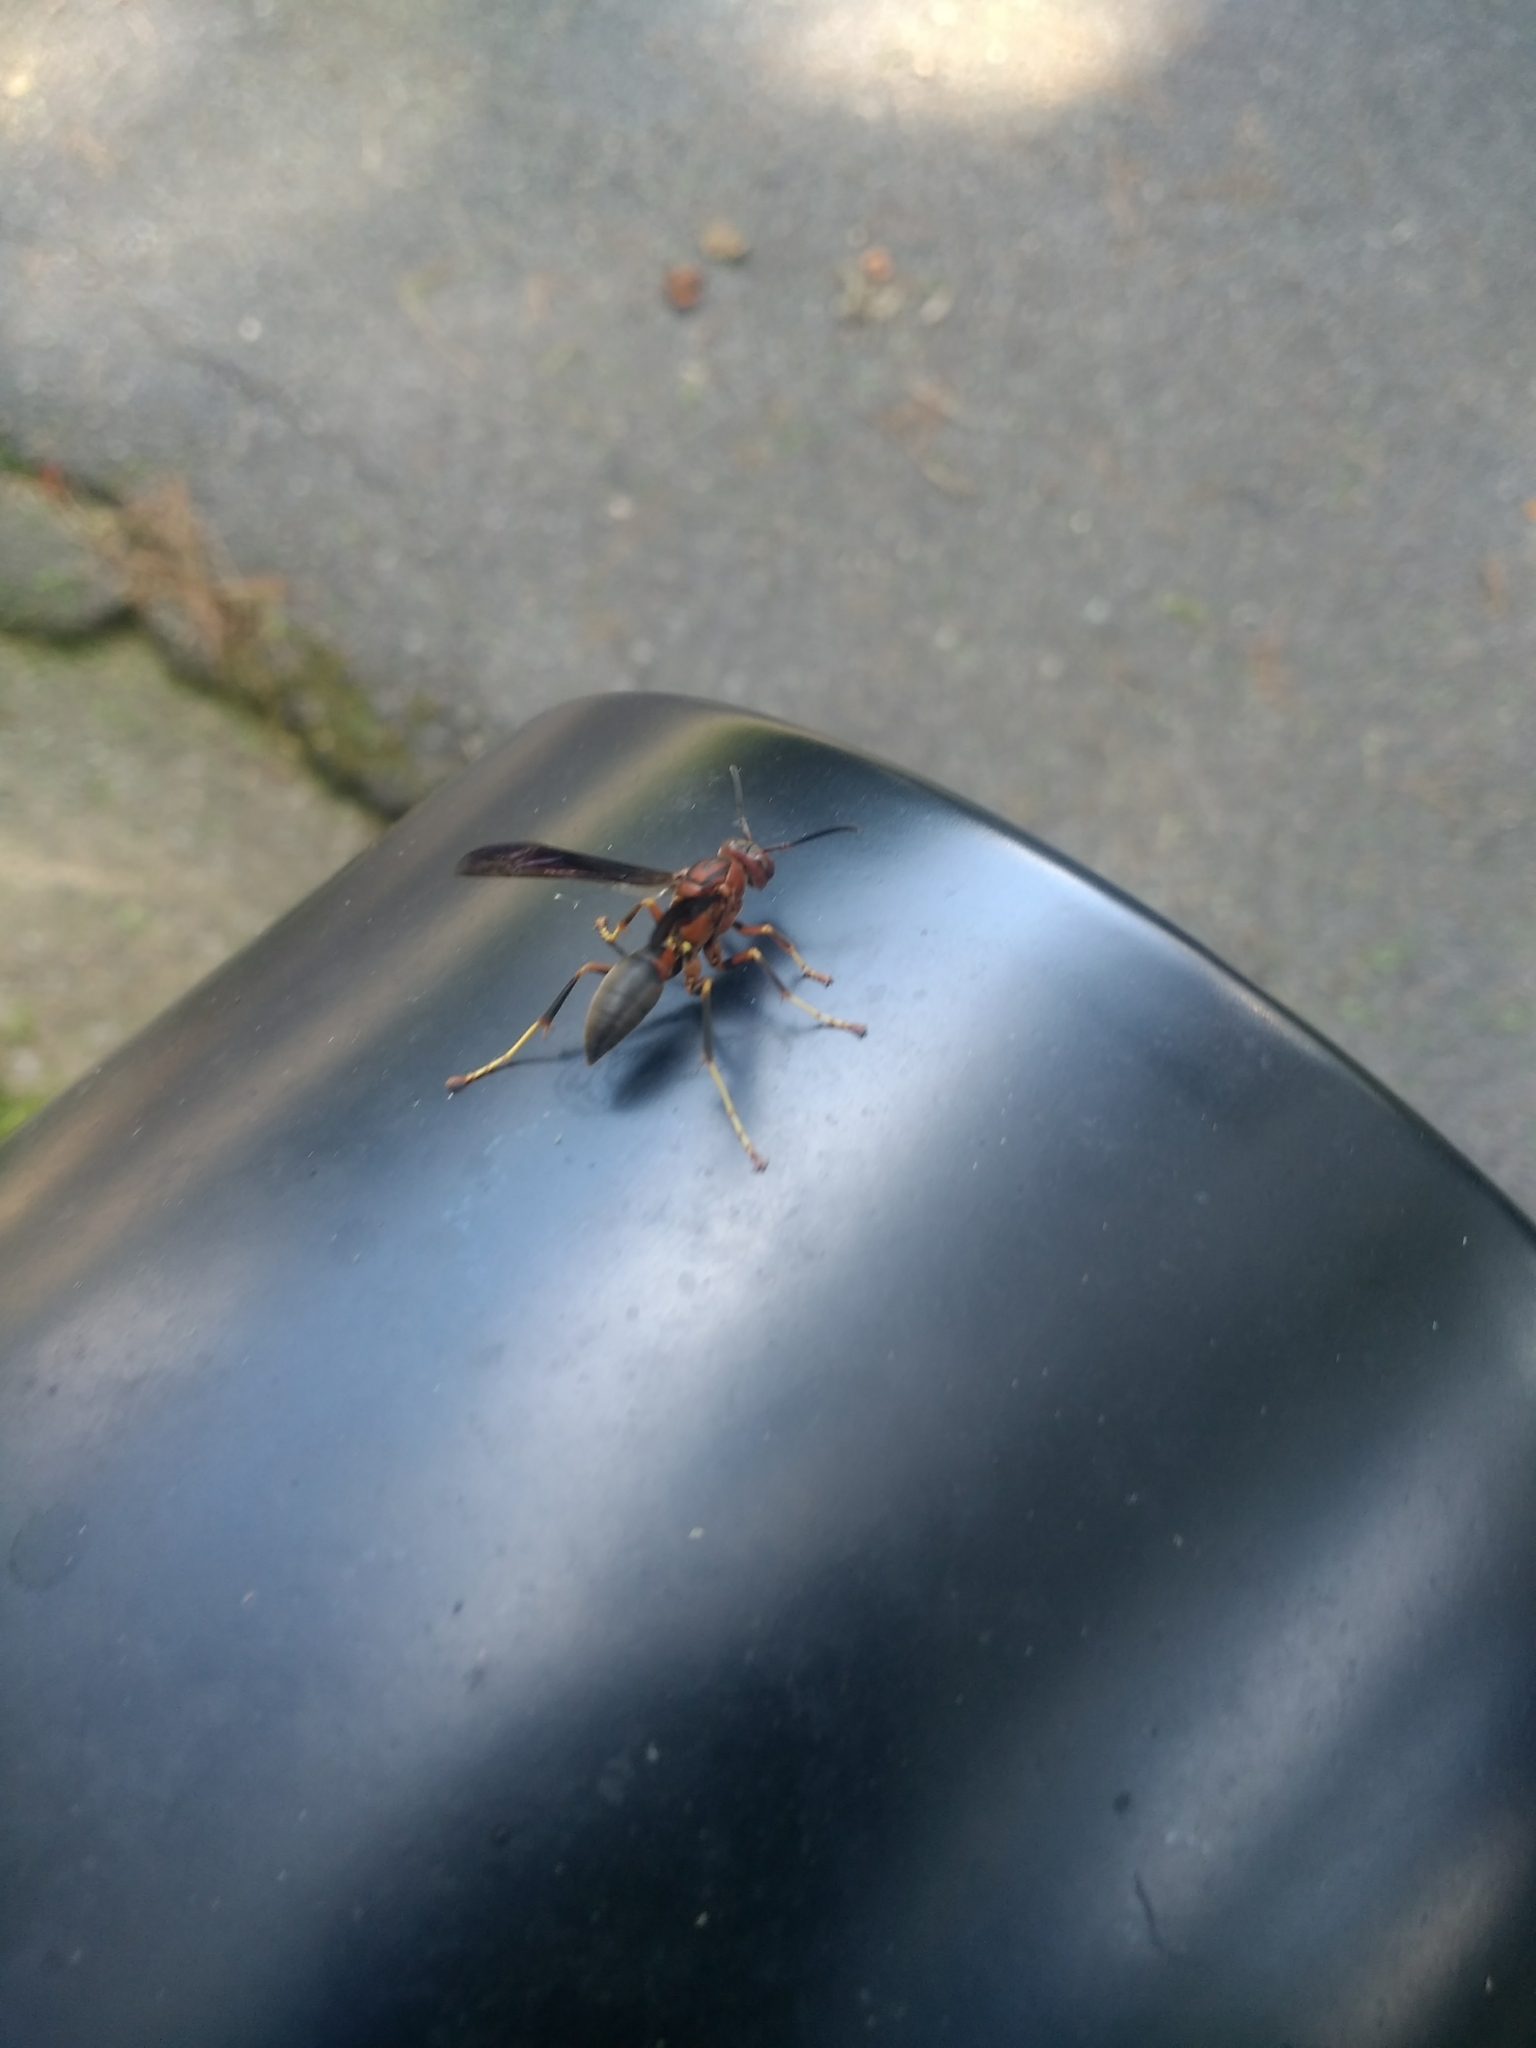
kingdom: Animalia
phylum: Arthropoda
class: Insecta
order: Hymenoptera
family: Eumenidae
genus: Polistes
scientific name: Polistes metricus
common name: Metric paper wasp
